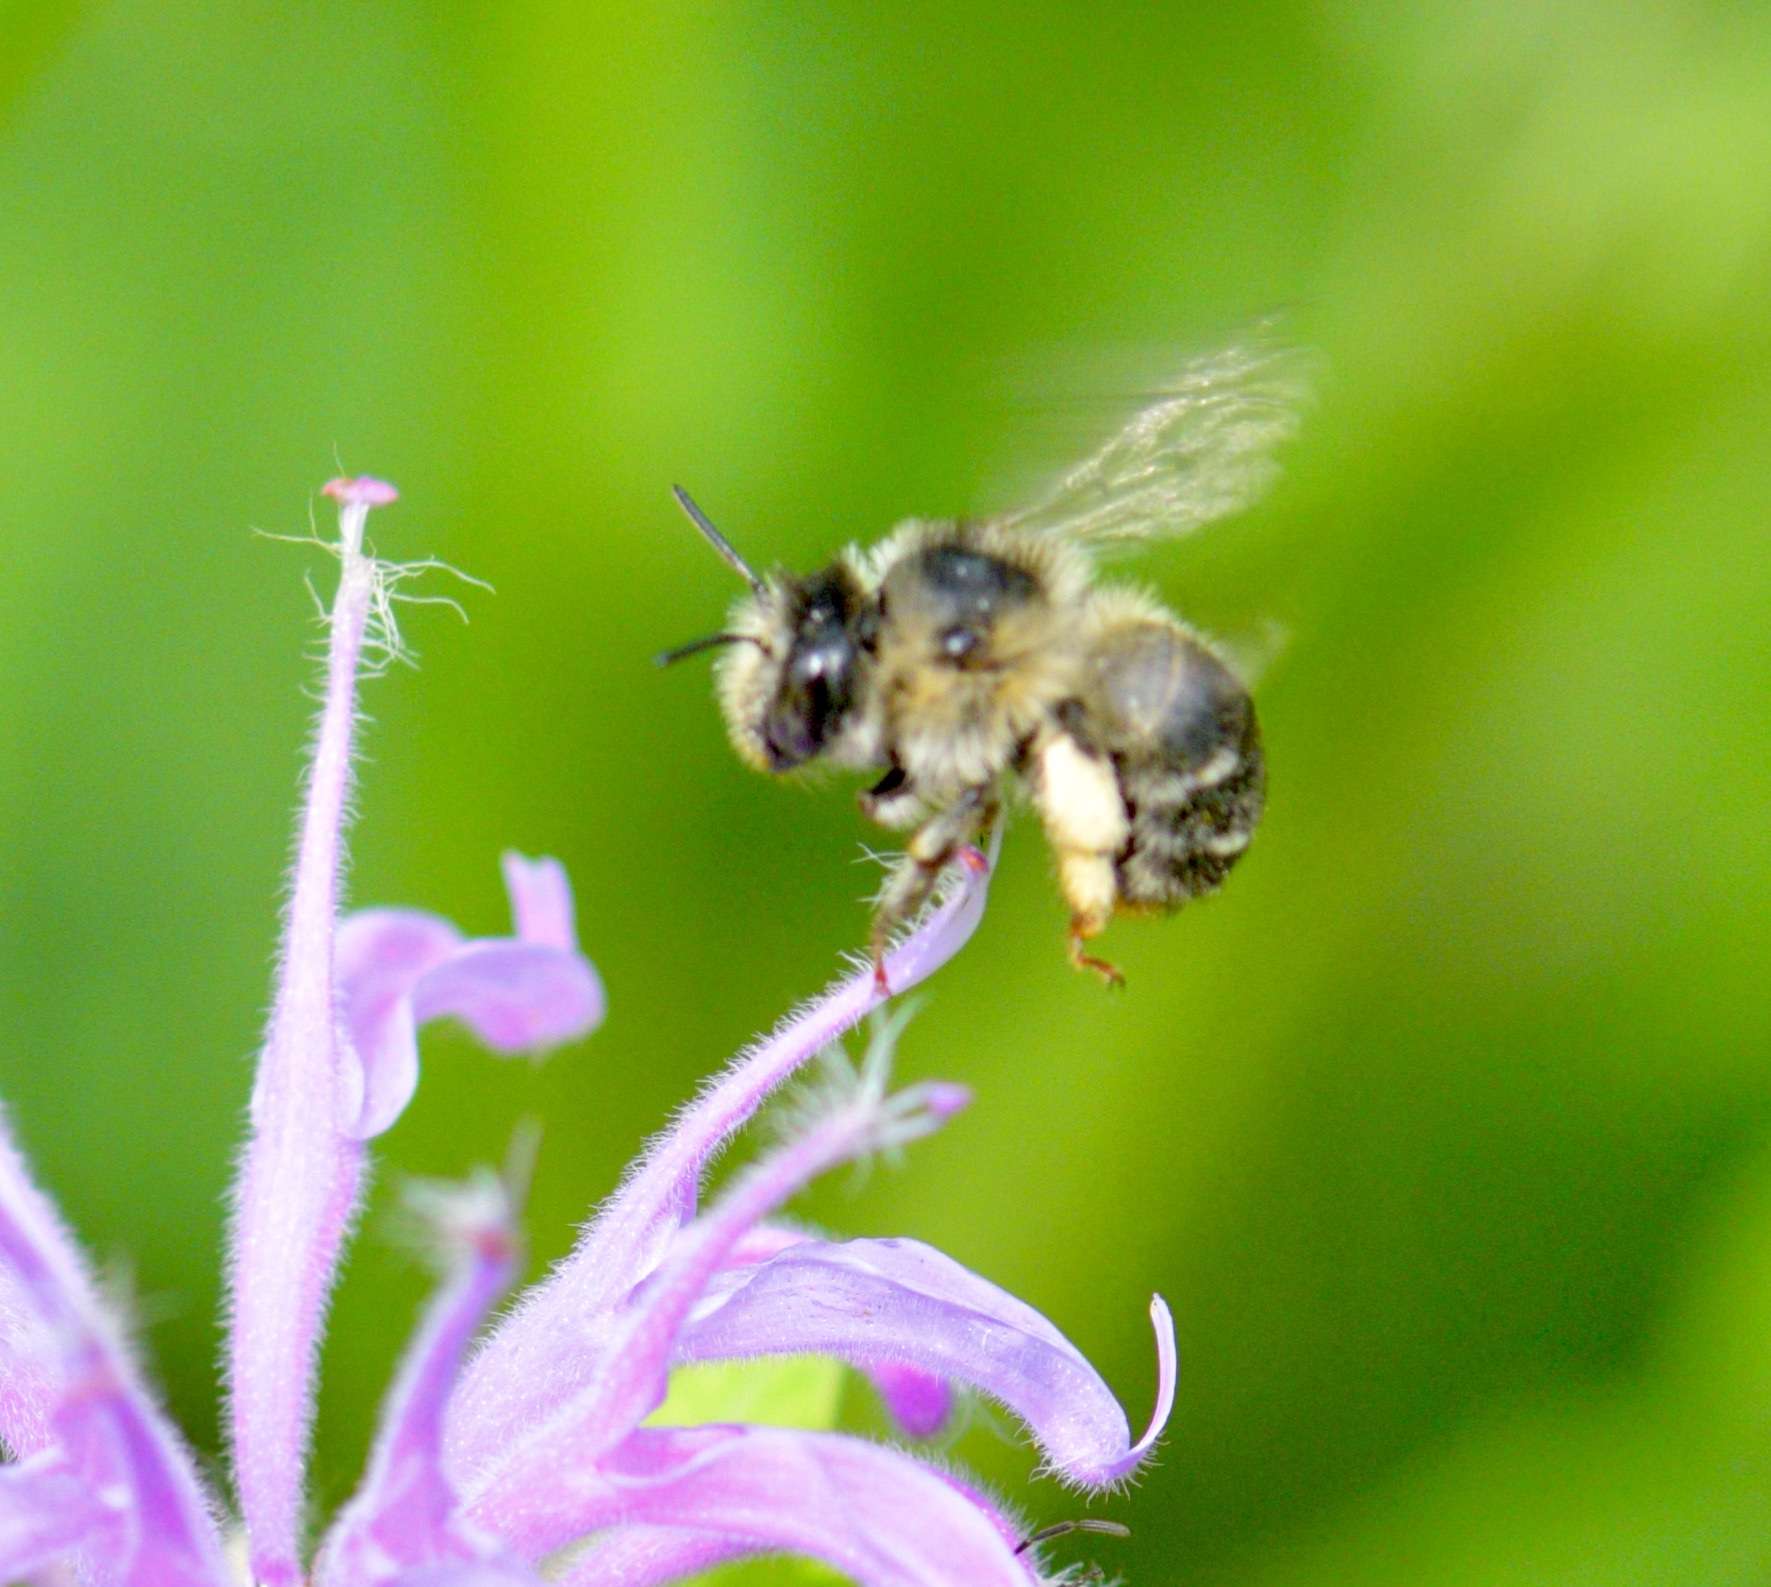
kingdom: Animalia
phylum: Arthropoda
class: Insecta
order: Hymenoptera
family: Apidae
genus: Anthophora
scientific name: Anthophora terminalis
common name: Orange-tipped wood-digger bee
